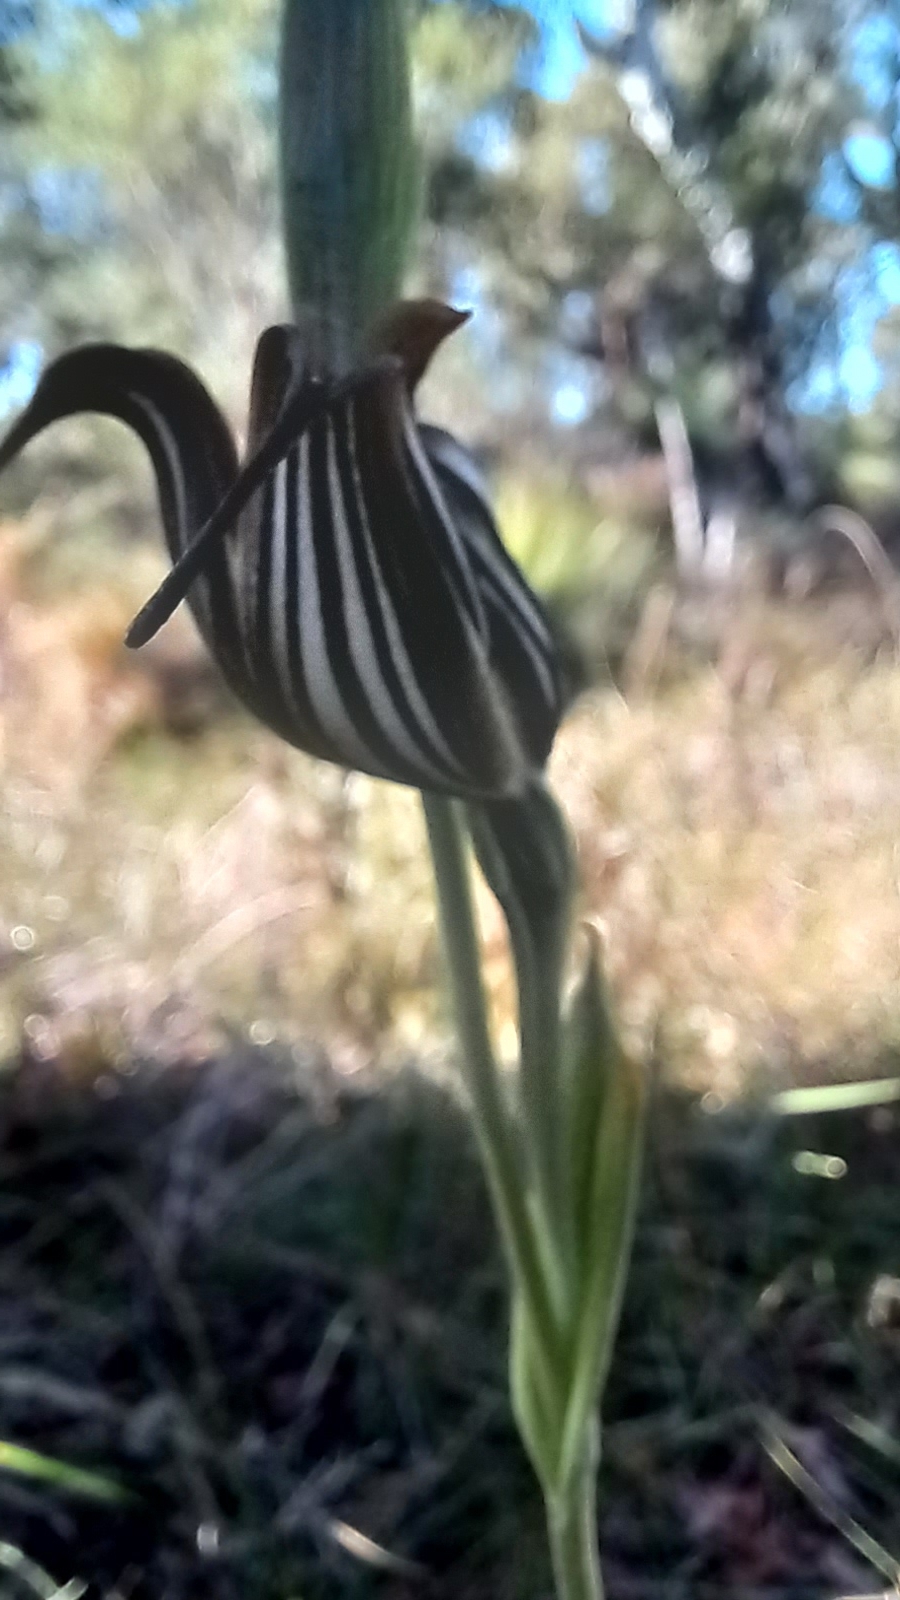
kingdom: Plantae
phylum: Tracheophyta
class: Liliopsida
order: Asparagales
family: Orchidaceae
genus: Pterostylis
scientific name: Pterostylis recurva
